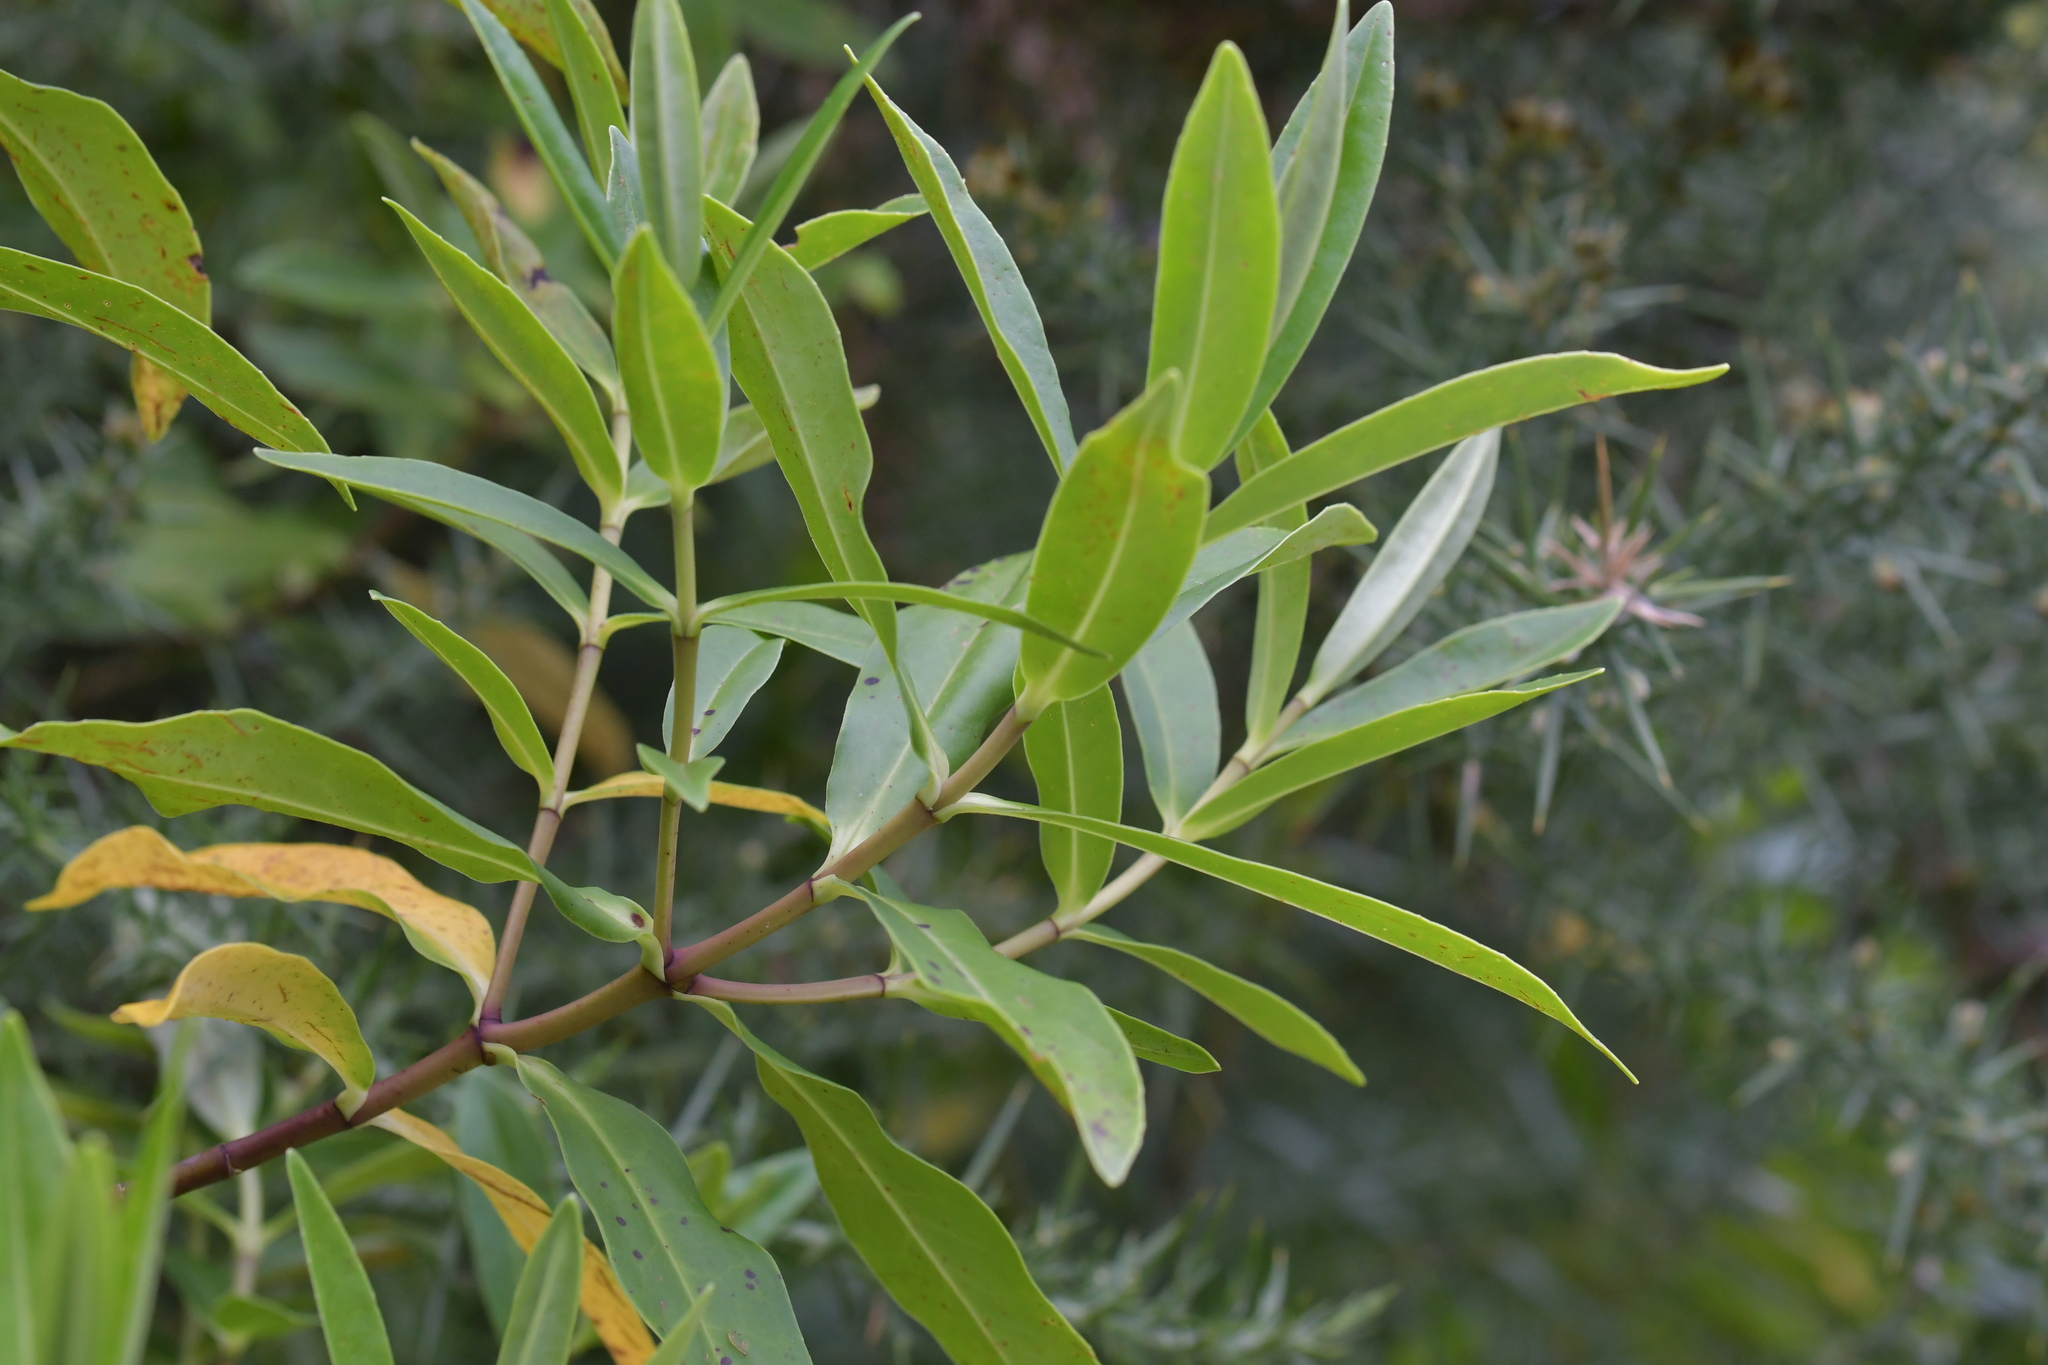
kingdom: Plantae
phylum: Tracheophyta
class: Magnoliopsida
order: Lamiales
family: Plantaginaceae
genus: Veronica
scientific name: Veronica stricta
